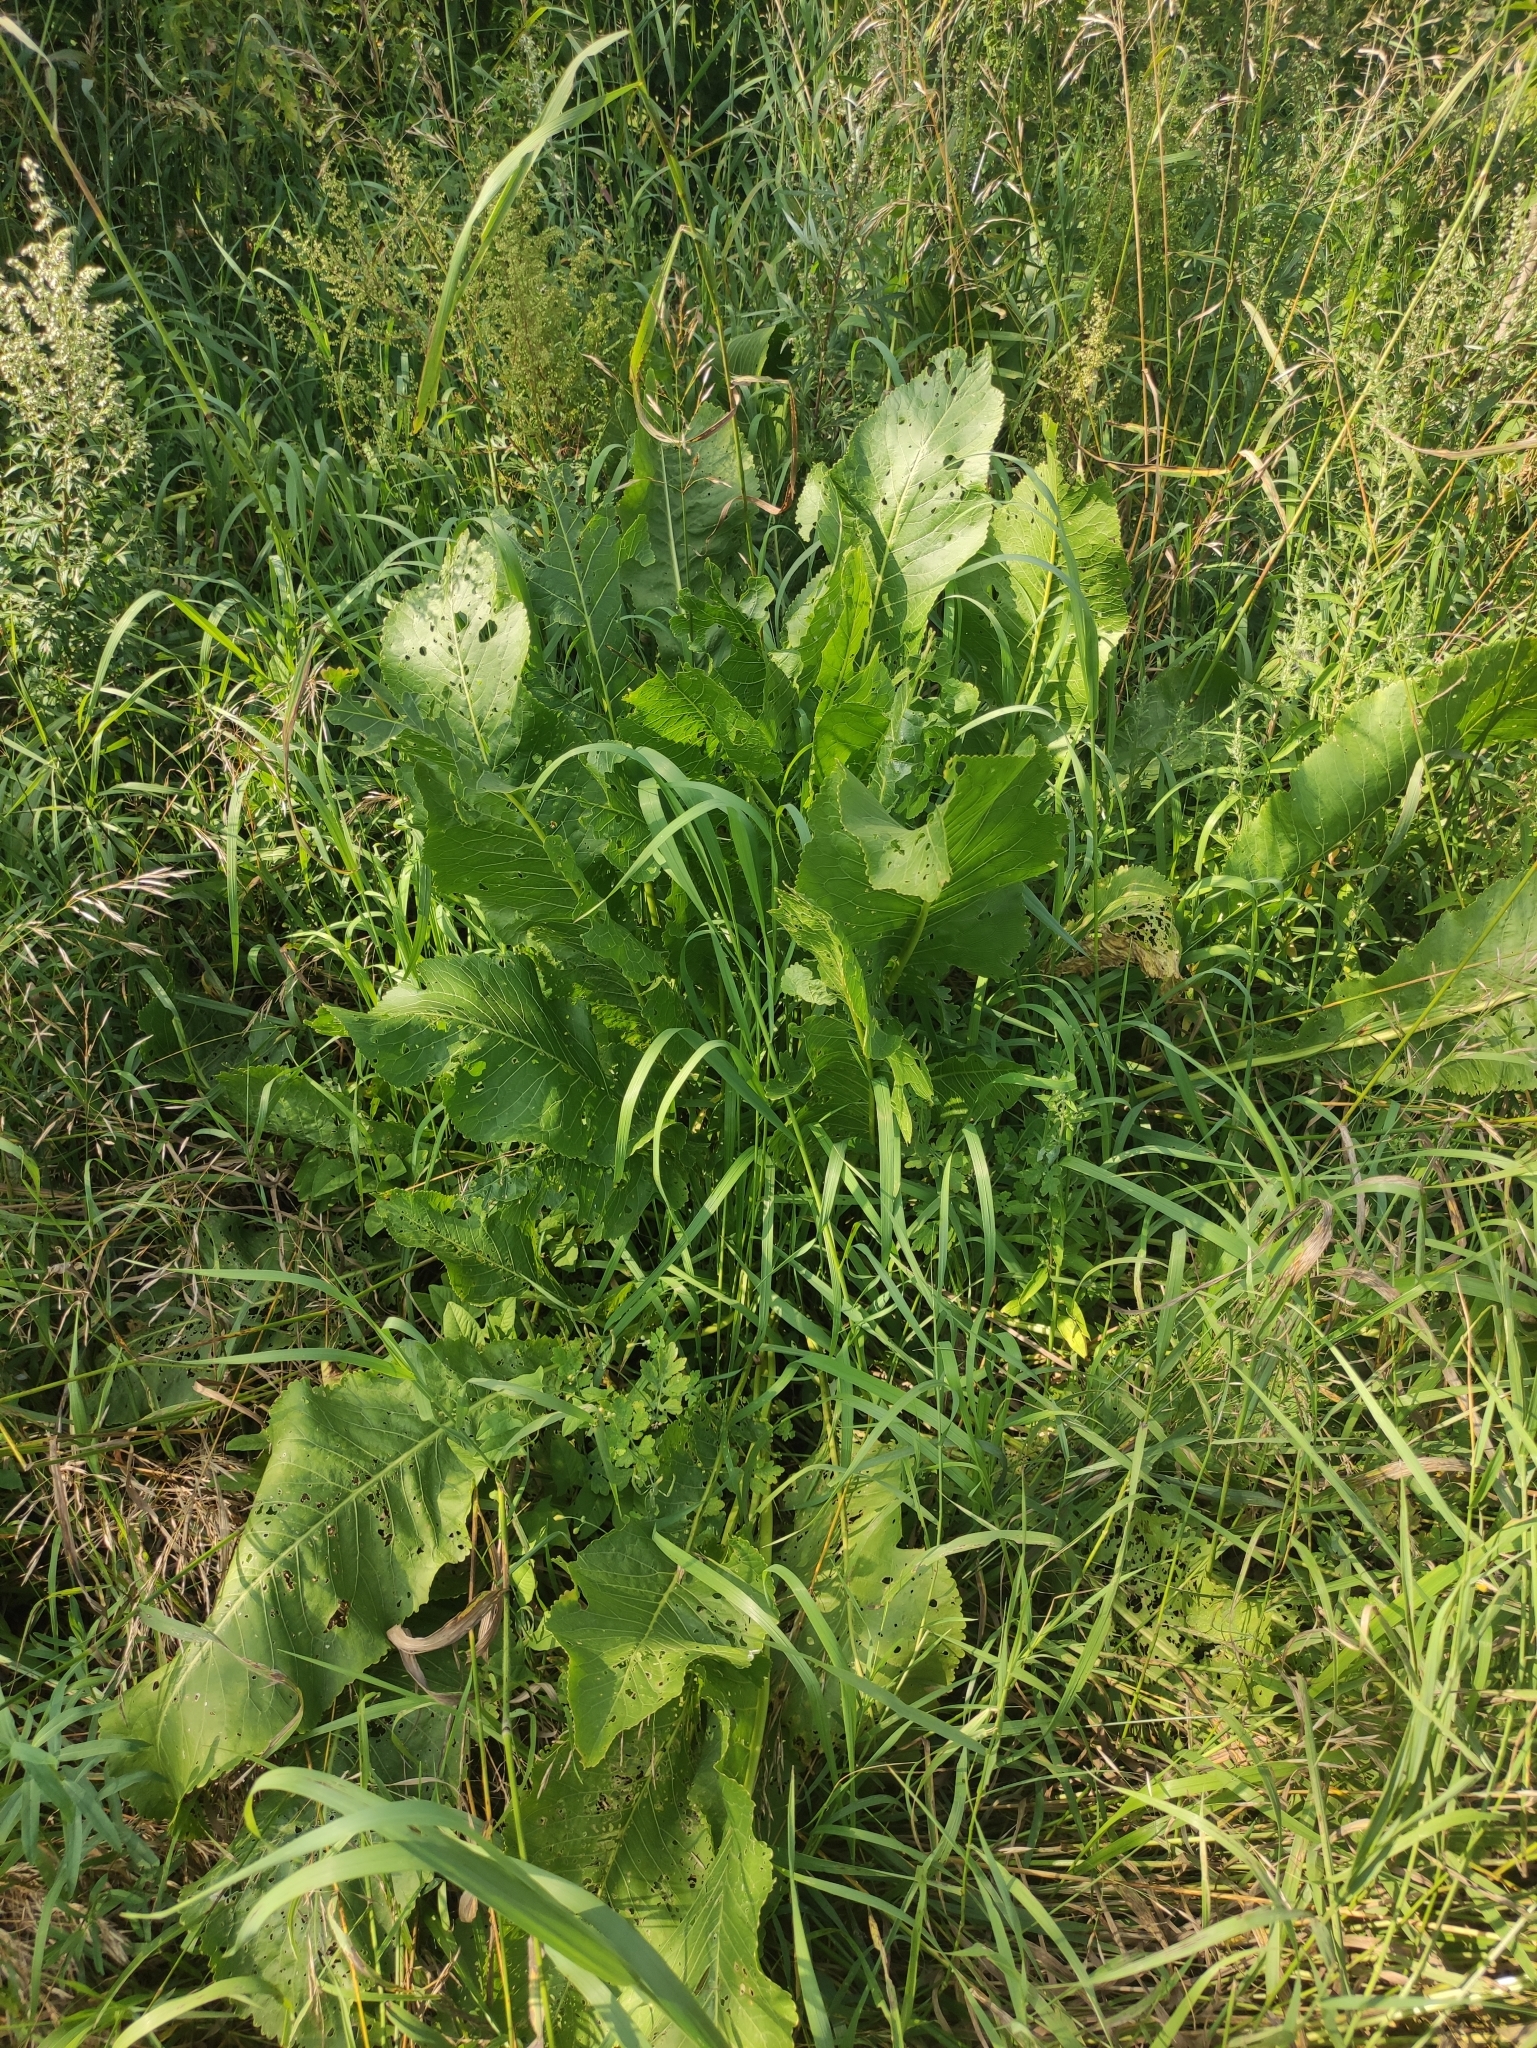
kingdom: Plantae
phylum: Tracheophyta
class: Magnoliopsida
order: Brassicales
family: Brassicaceae
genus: Armoracia
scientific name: Armoracia rusticana
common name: Horseradish
